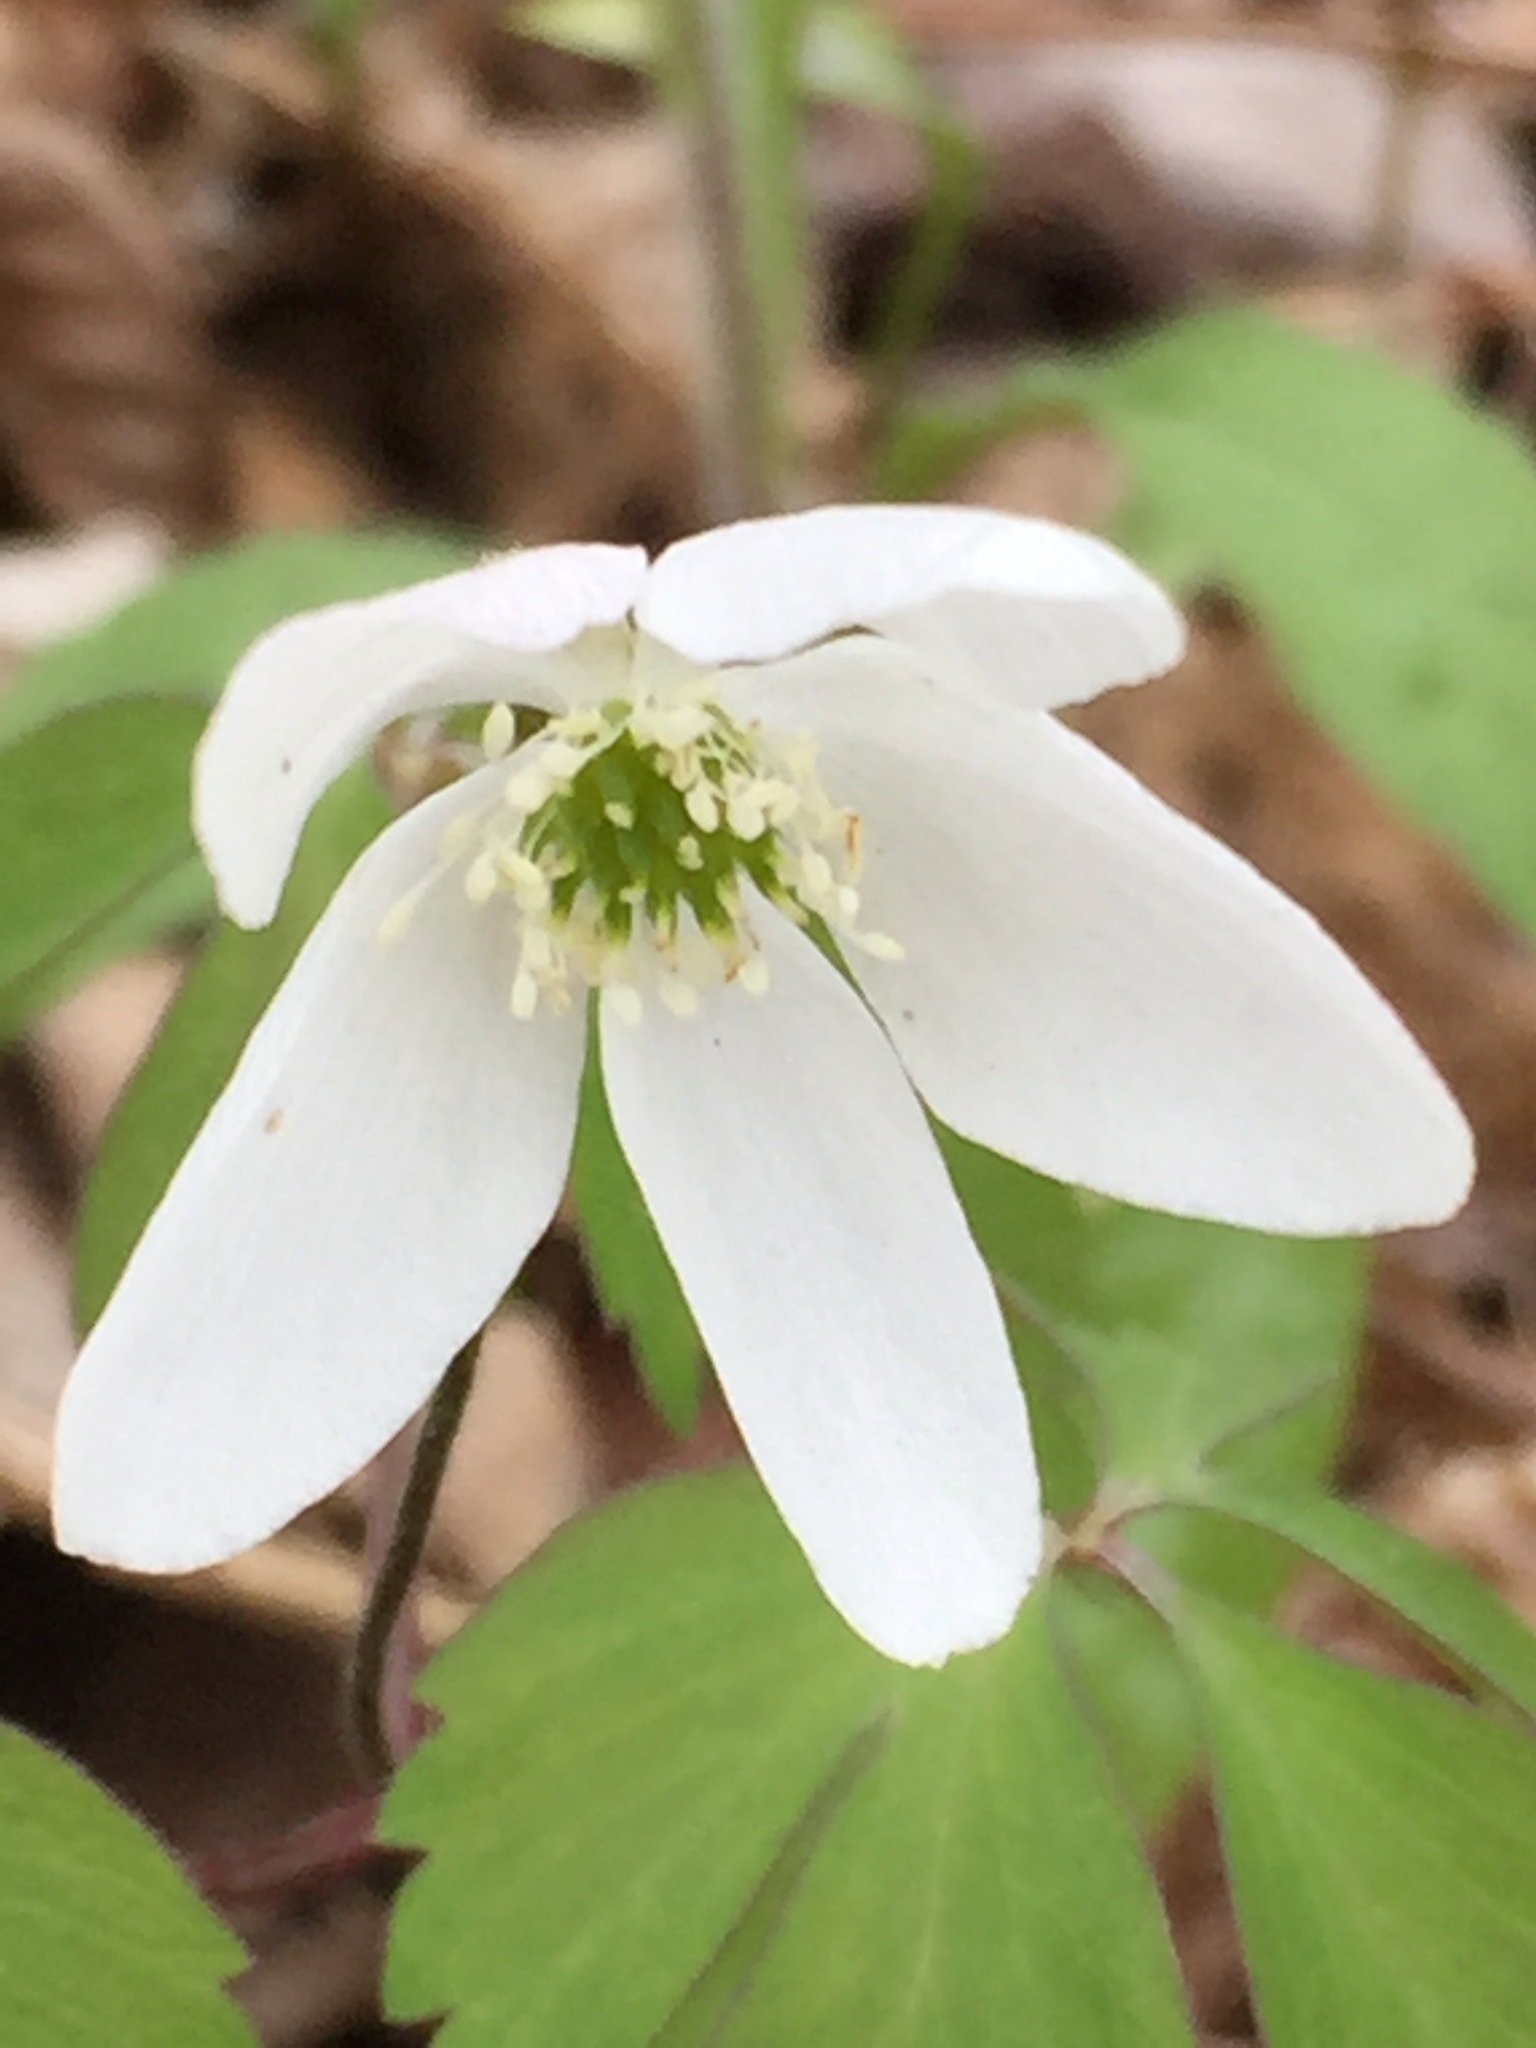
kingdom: Plantae
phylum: Tracheophyta
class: Magnoliopsida
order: Ranunculales
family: Ranunculaceae
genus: Anemone
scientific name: Anemone quinquefolia
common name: Wood anemone
